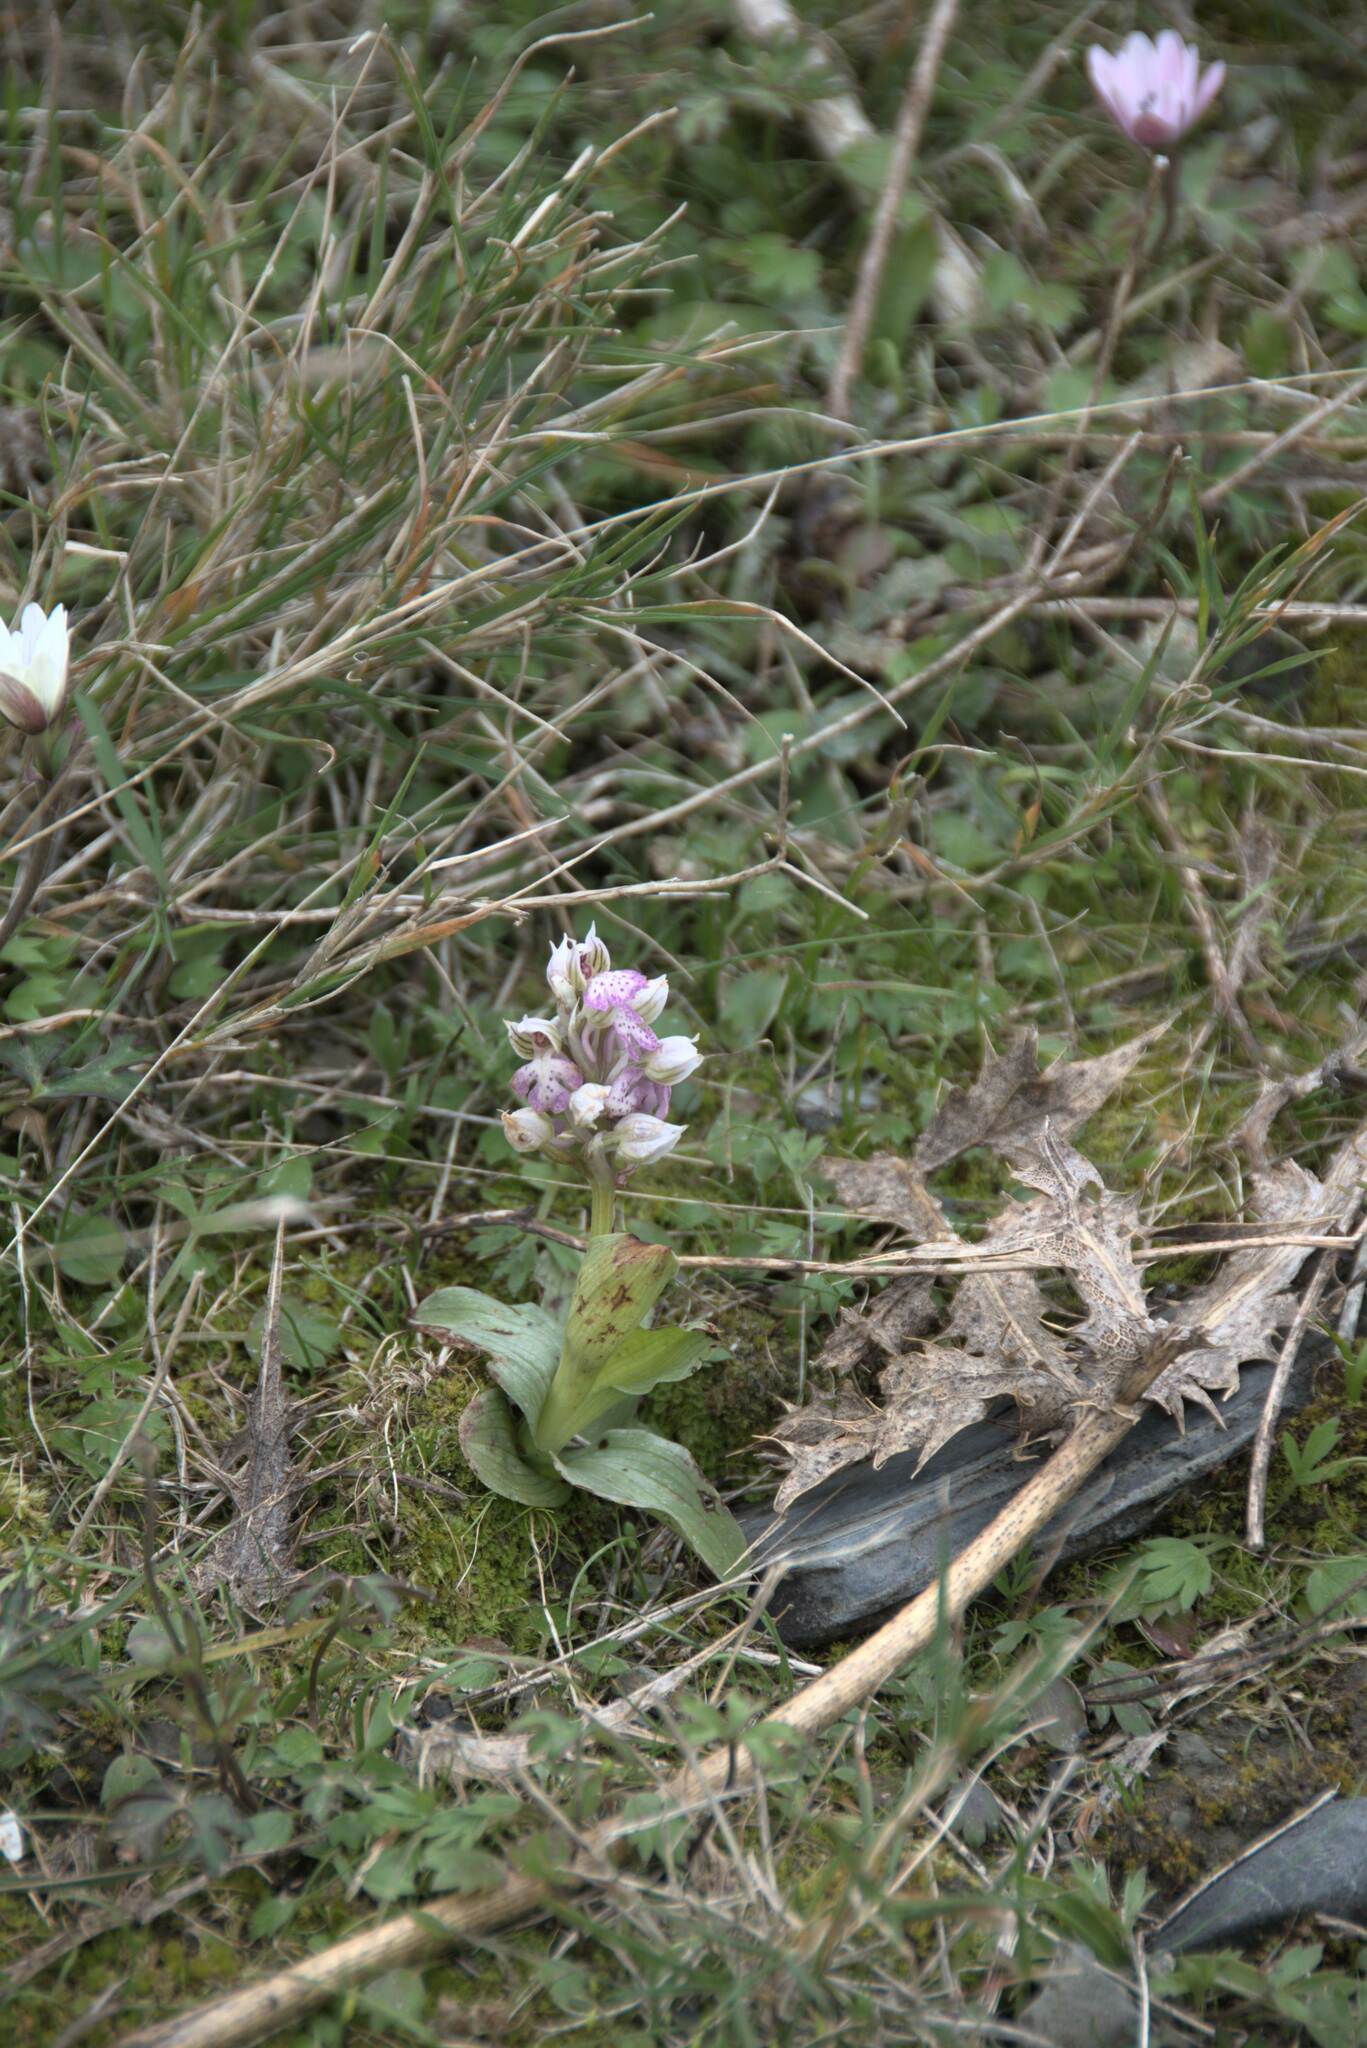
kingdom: Plantae
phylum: Tracheophyta
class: Liliopsida
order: Asparagales
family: Orchidaceae
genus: Neotinea
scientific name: Neotinea lactea
